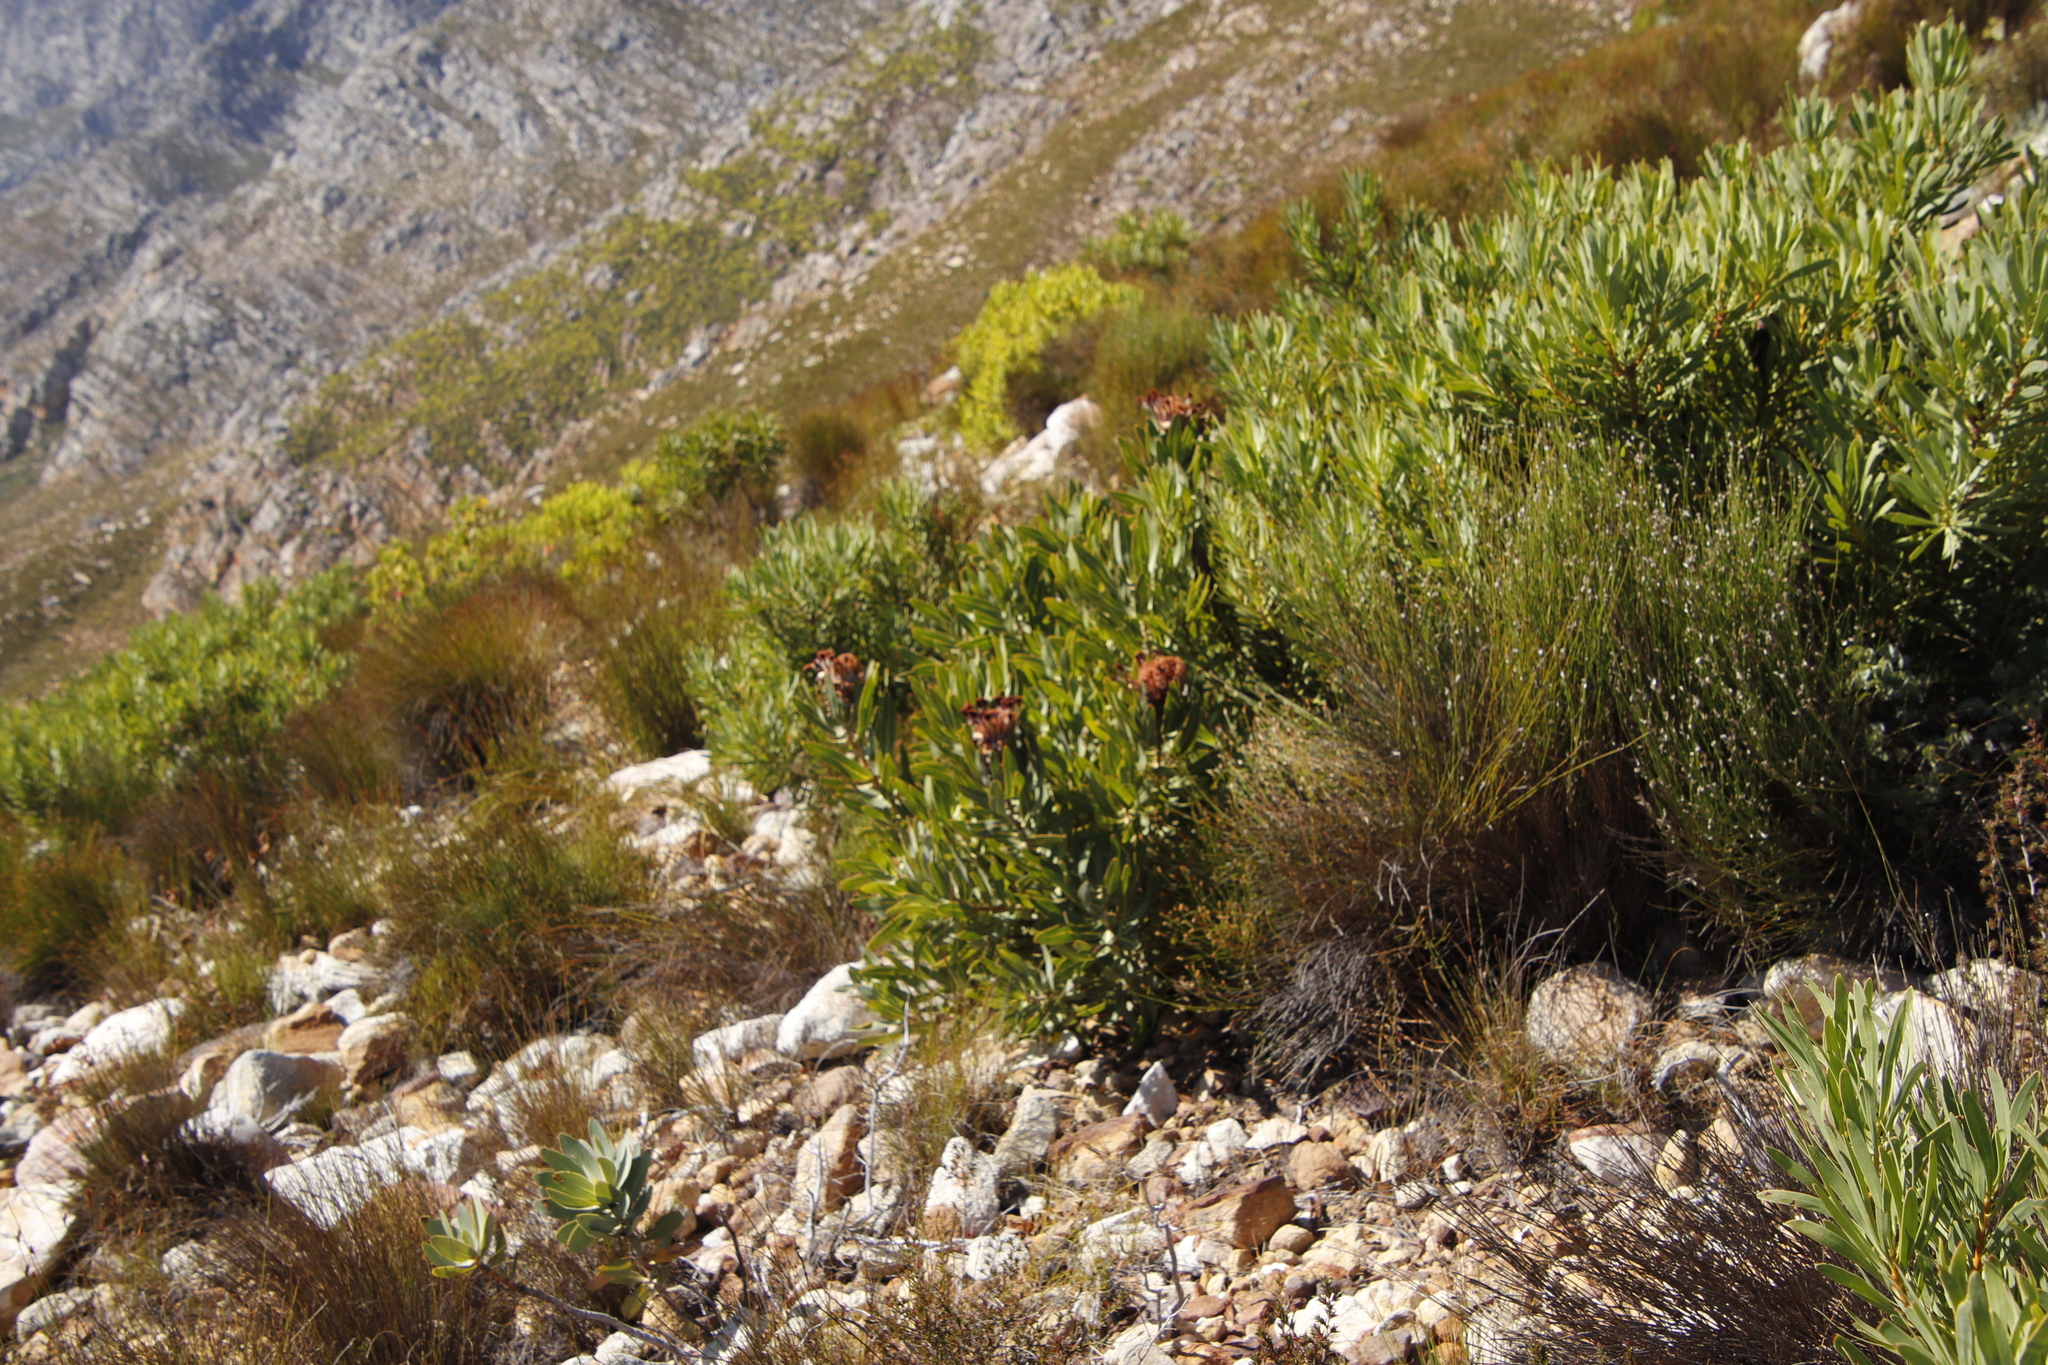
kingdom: Plantae
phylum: Tracheophyta
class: Magnoliopsida
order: Proteales
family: Proteaceae
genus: Protea
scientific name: Protea laurifolia
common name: Grey-leaf sugarbsh
